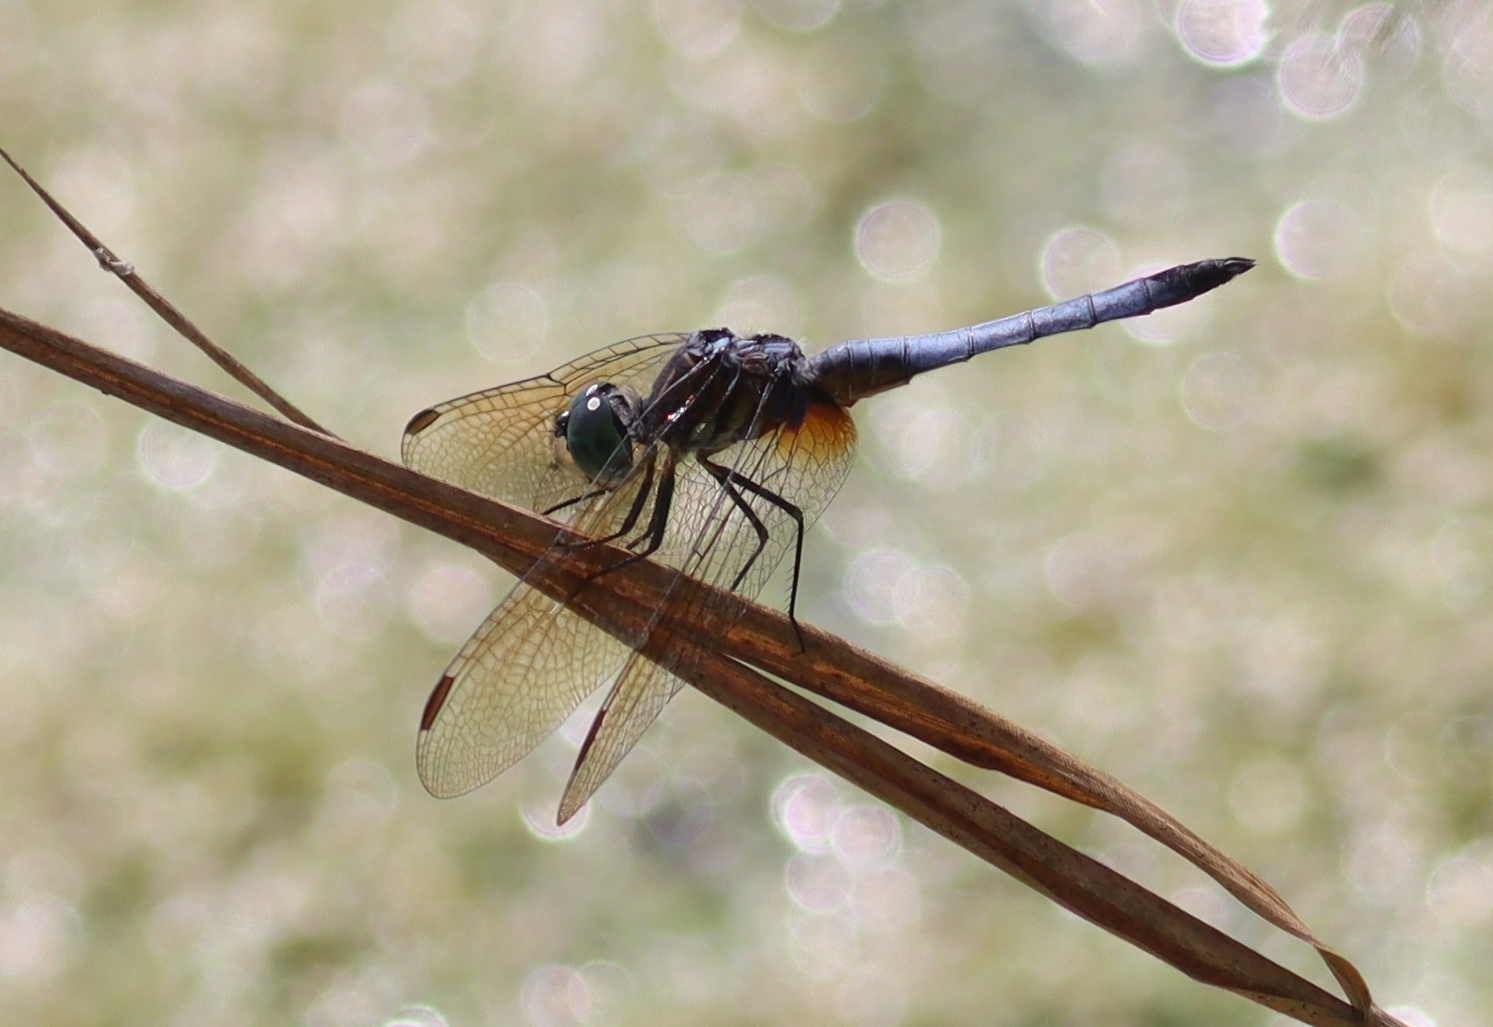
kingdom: Animalia
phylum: Arthropoda
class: Insecta
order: Odonata
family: Libellulidae
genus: Pachydiplax
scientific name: Pachydiplax longipennis
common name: Blue dasher
